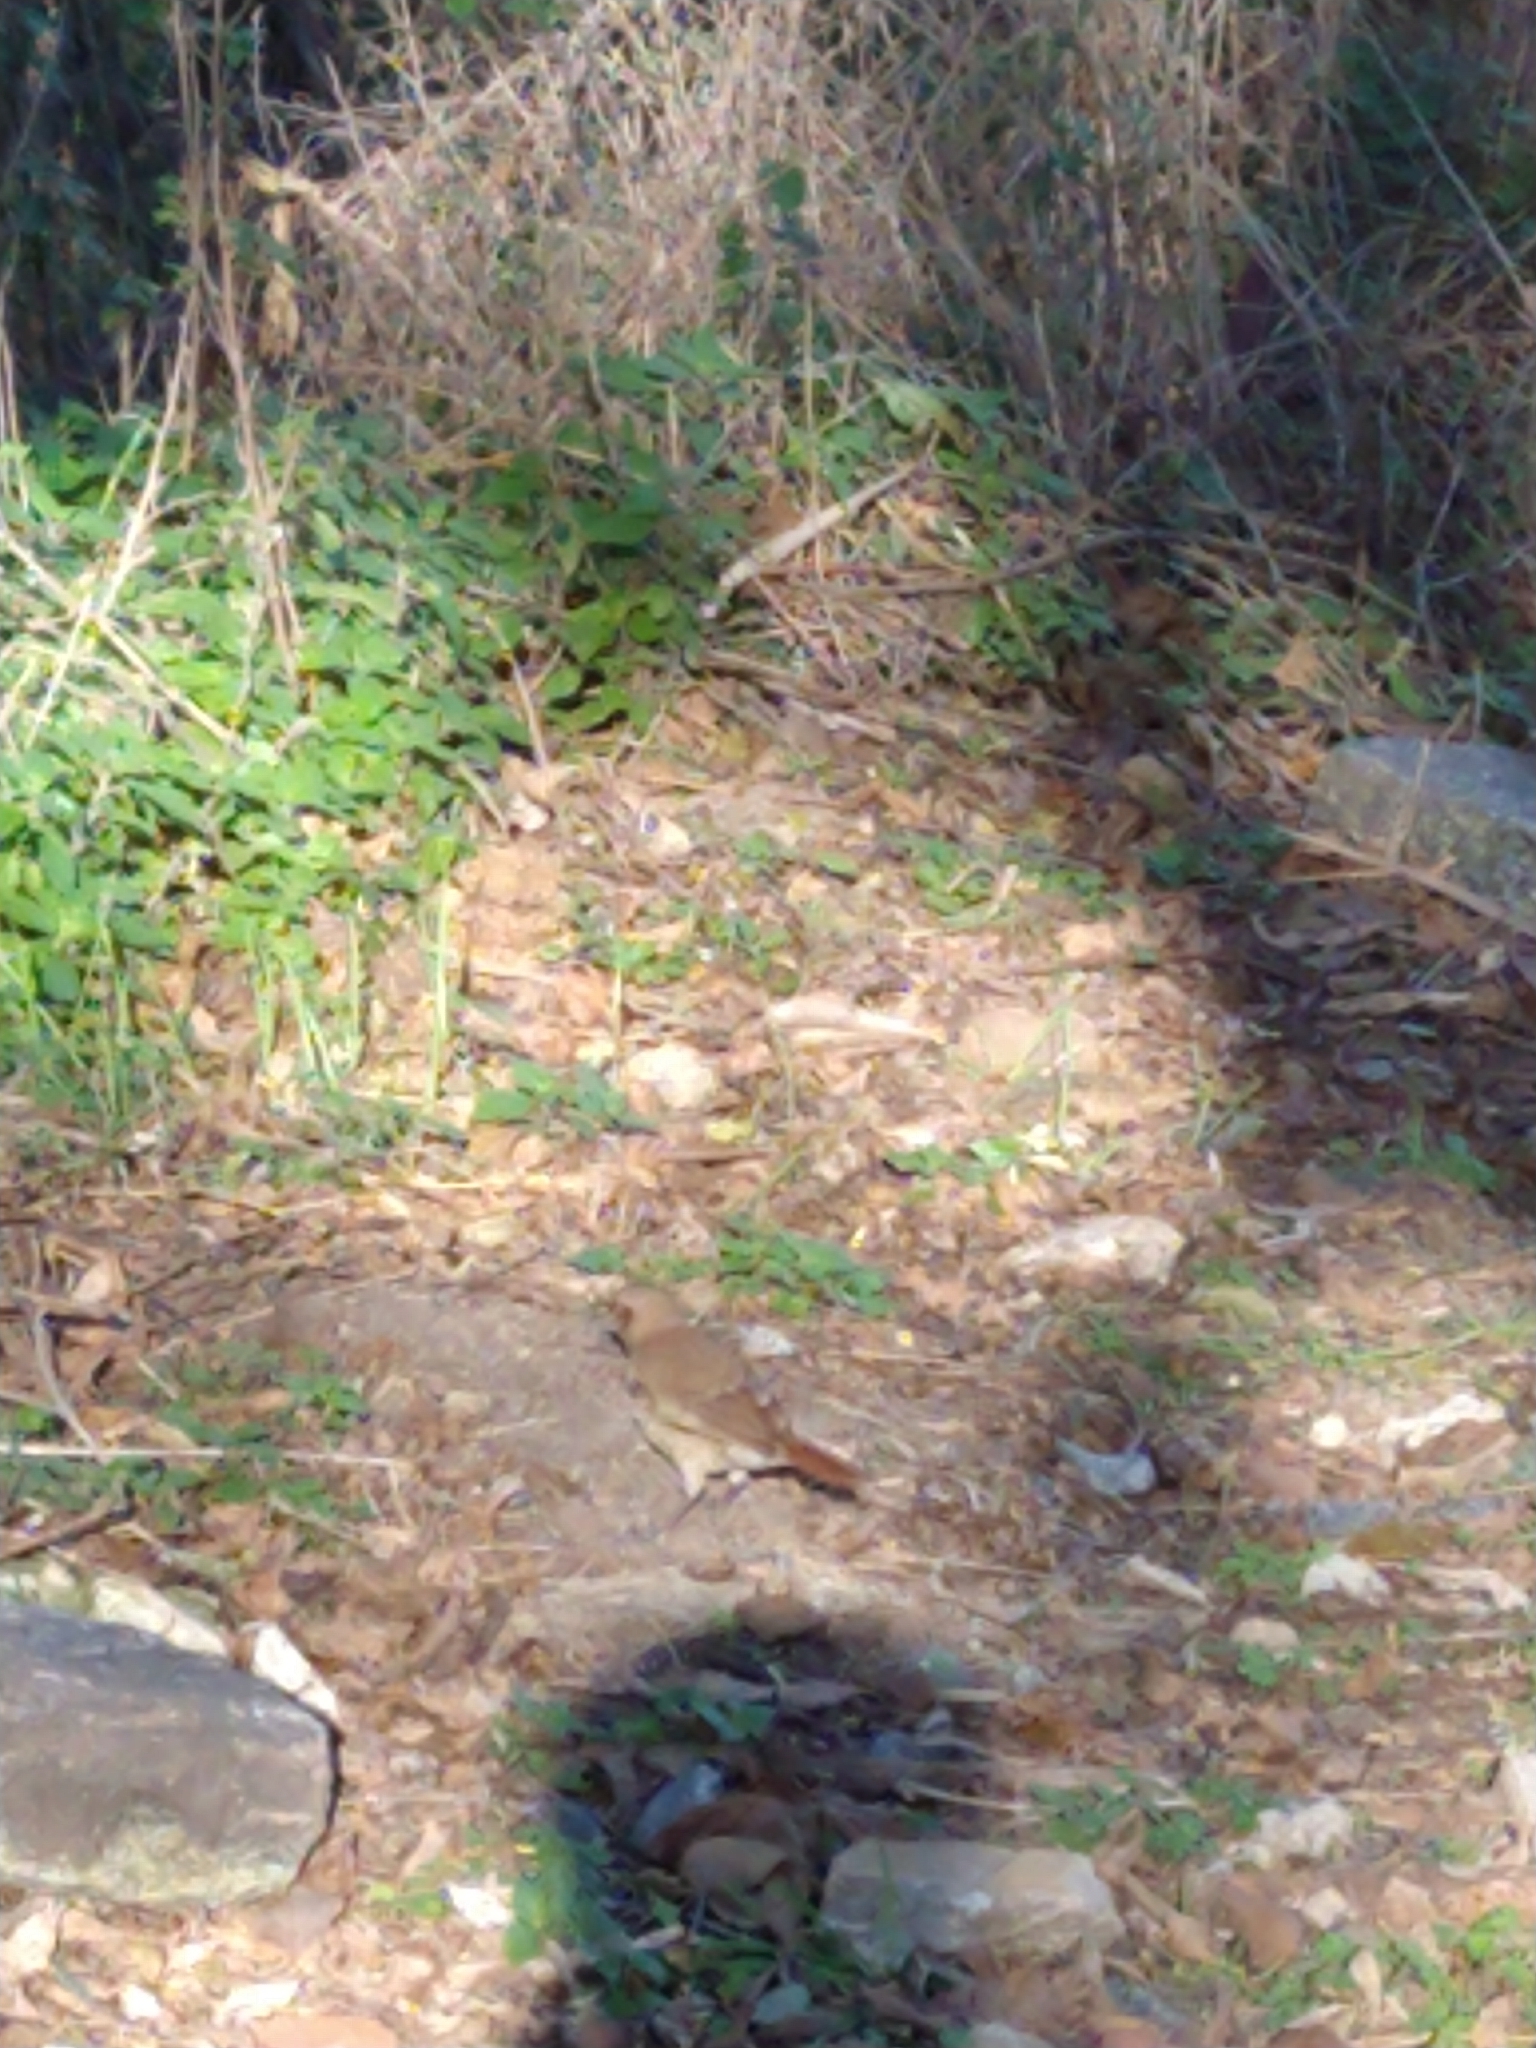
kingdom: Animalia
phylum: Chordata
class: Aves
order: Passeriformes
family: Furnariidae
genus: Furnarius
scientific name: Furnarius rufus
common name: Rufous hornero
